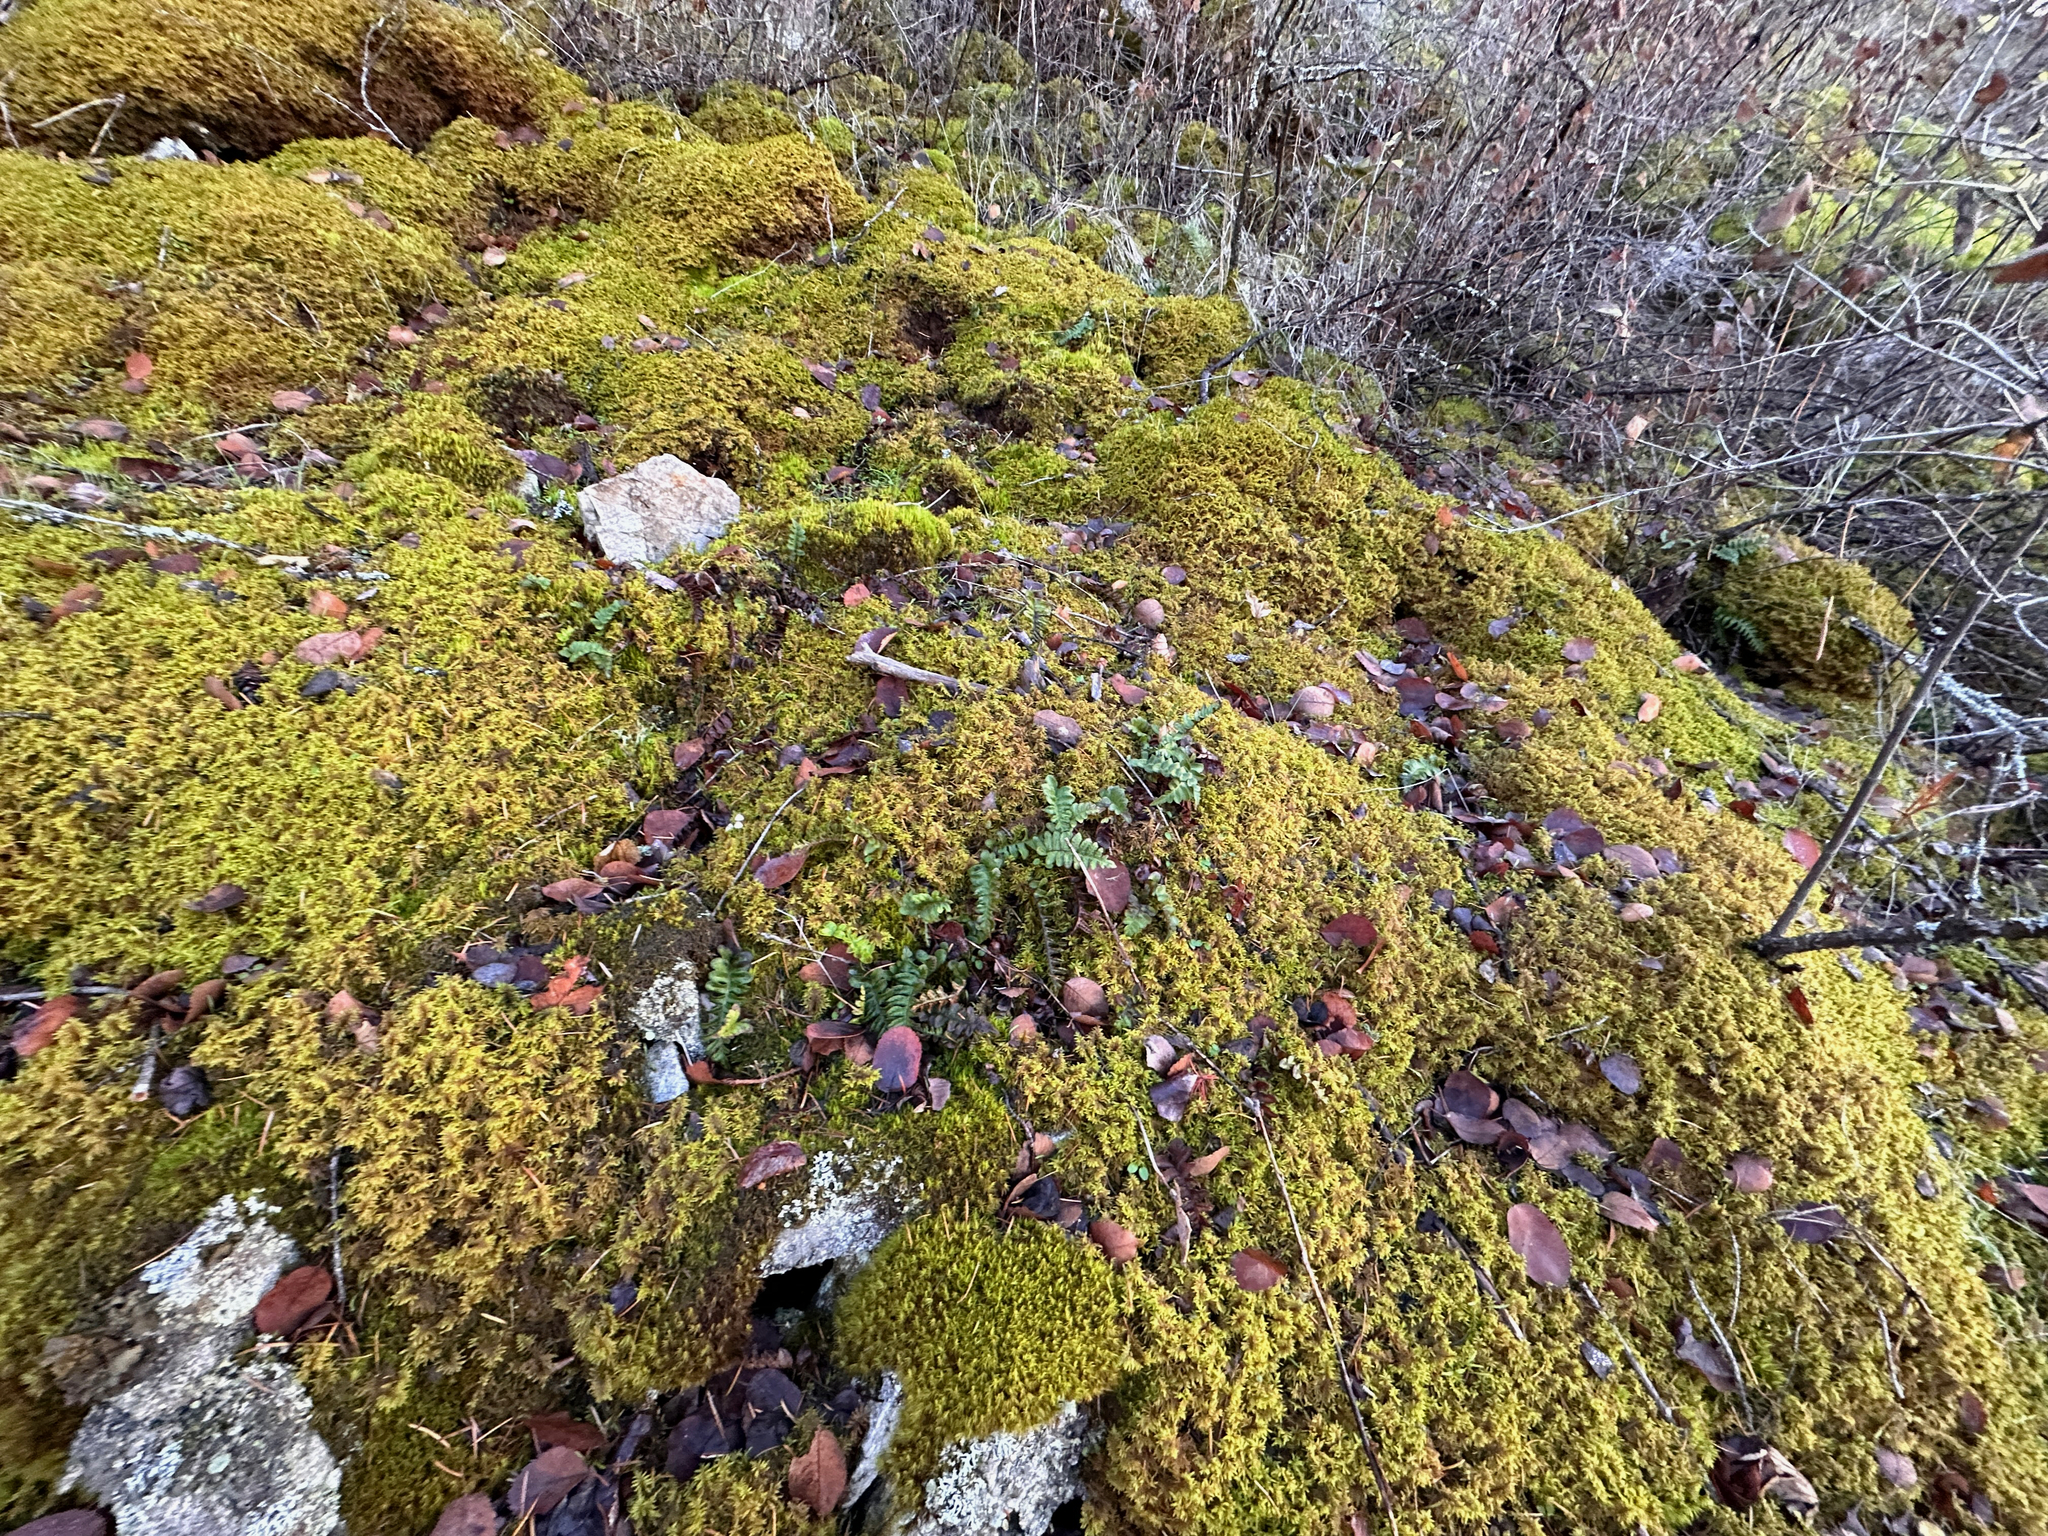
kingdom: Plantae
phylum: Tracheophyta
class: Polypodiopsida
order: Polypodiales
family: Polypodiaceae
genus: Polypodium
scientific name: Polypodium hesperium
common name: Western polypody
